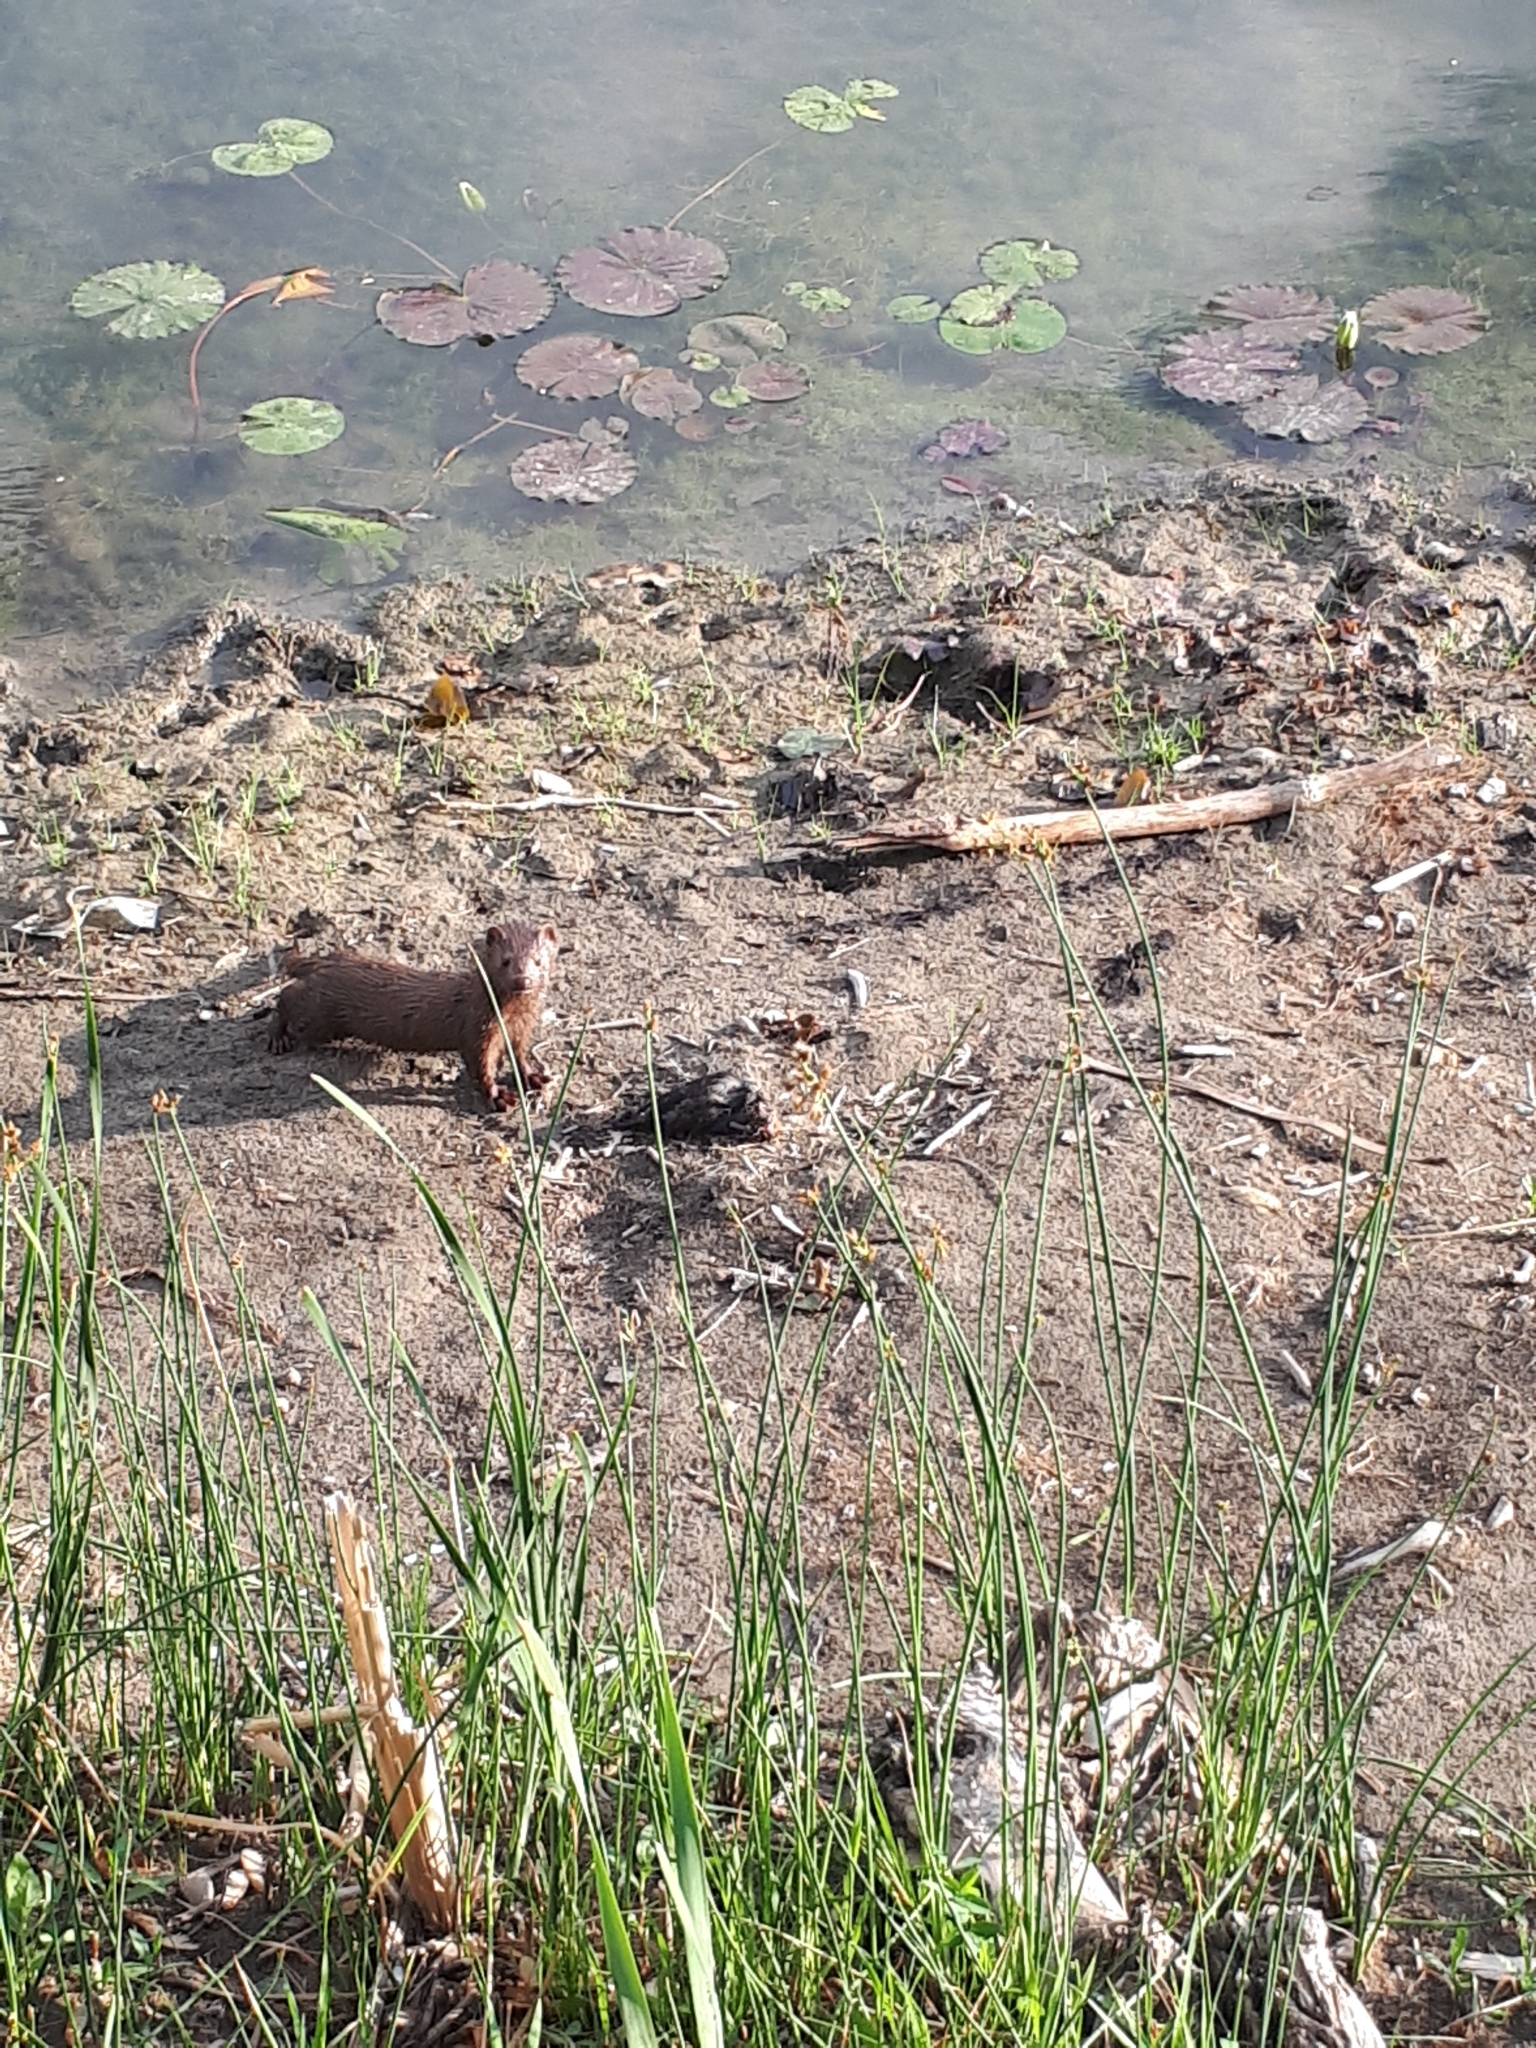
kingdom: Animalia
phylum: Chordata
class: Mammalia
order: Carnivora
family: Mustelidae
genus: Mustela
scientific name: Mustela
